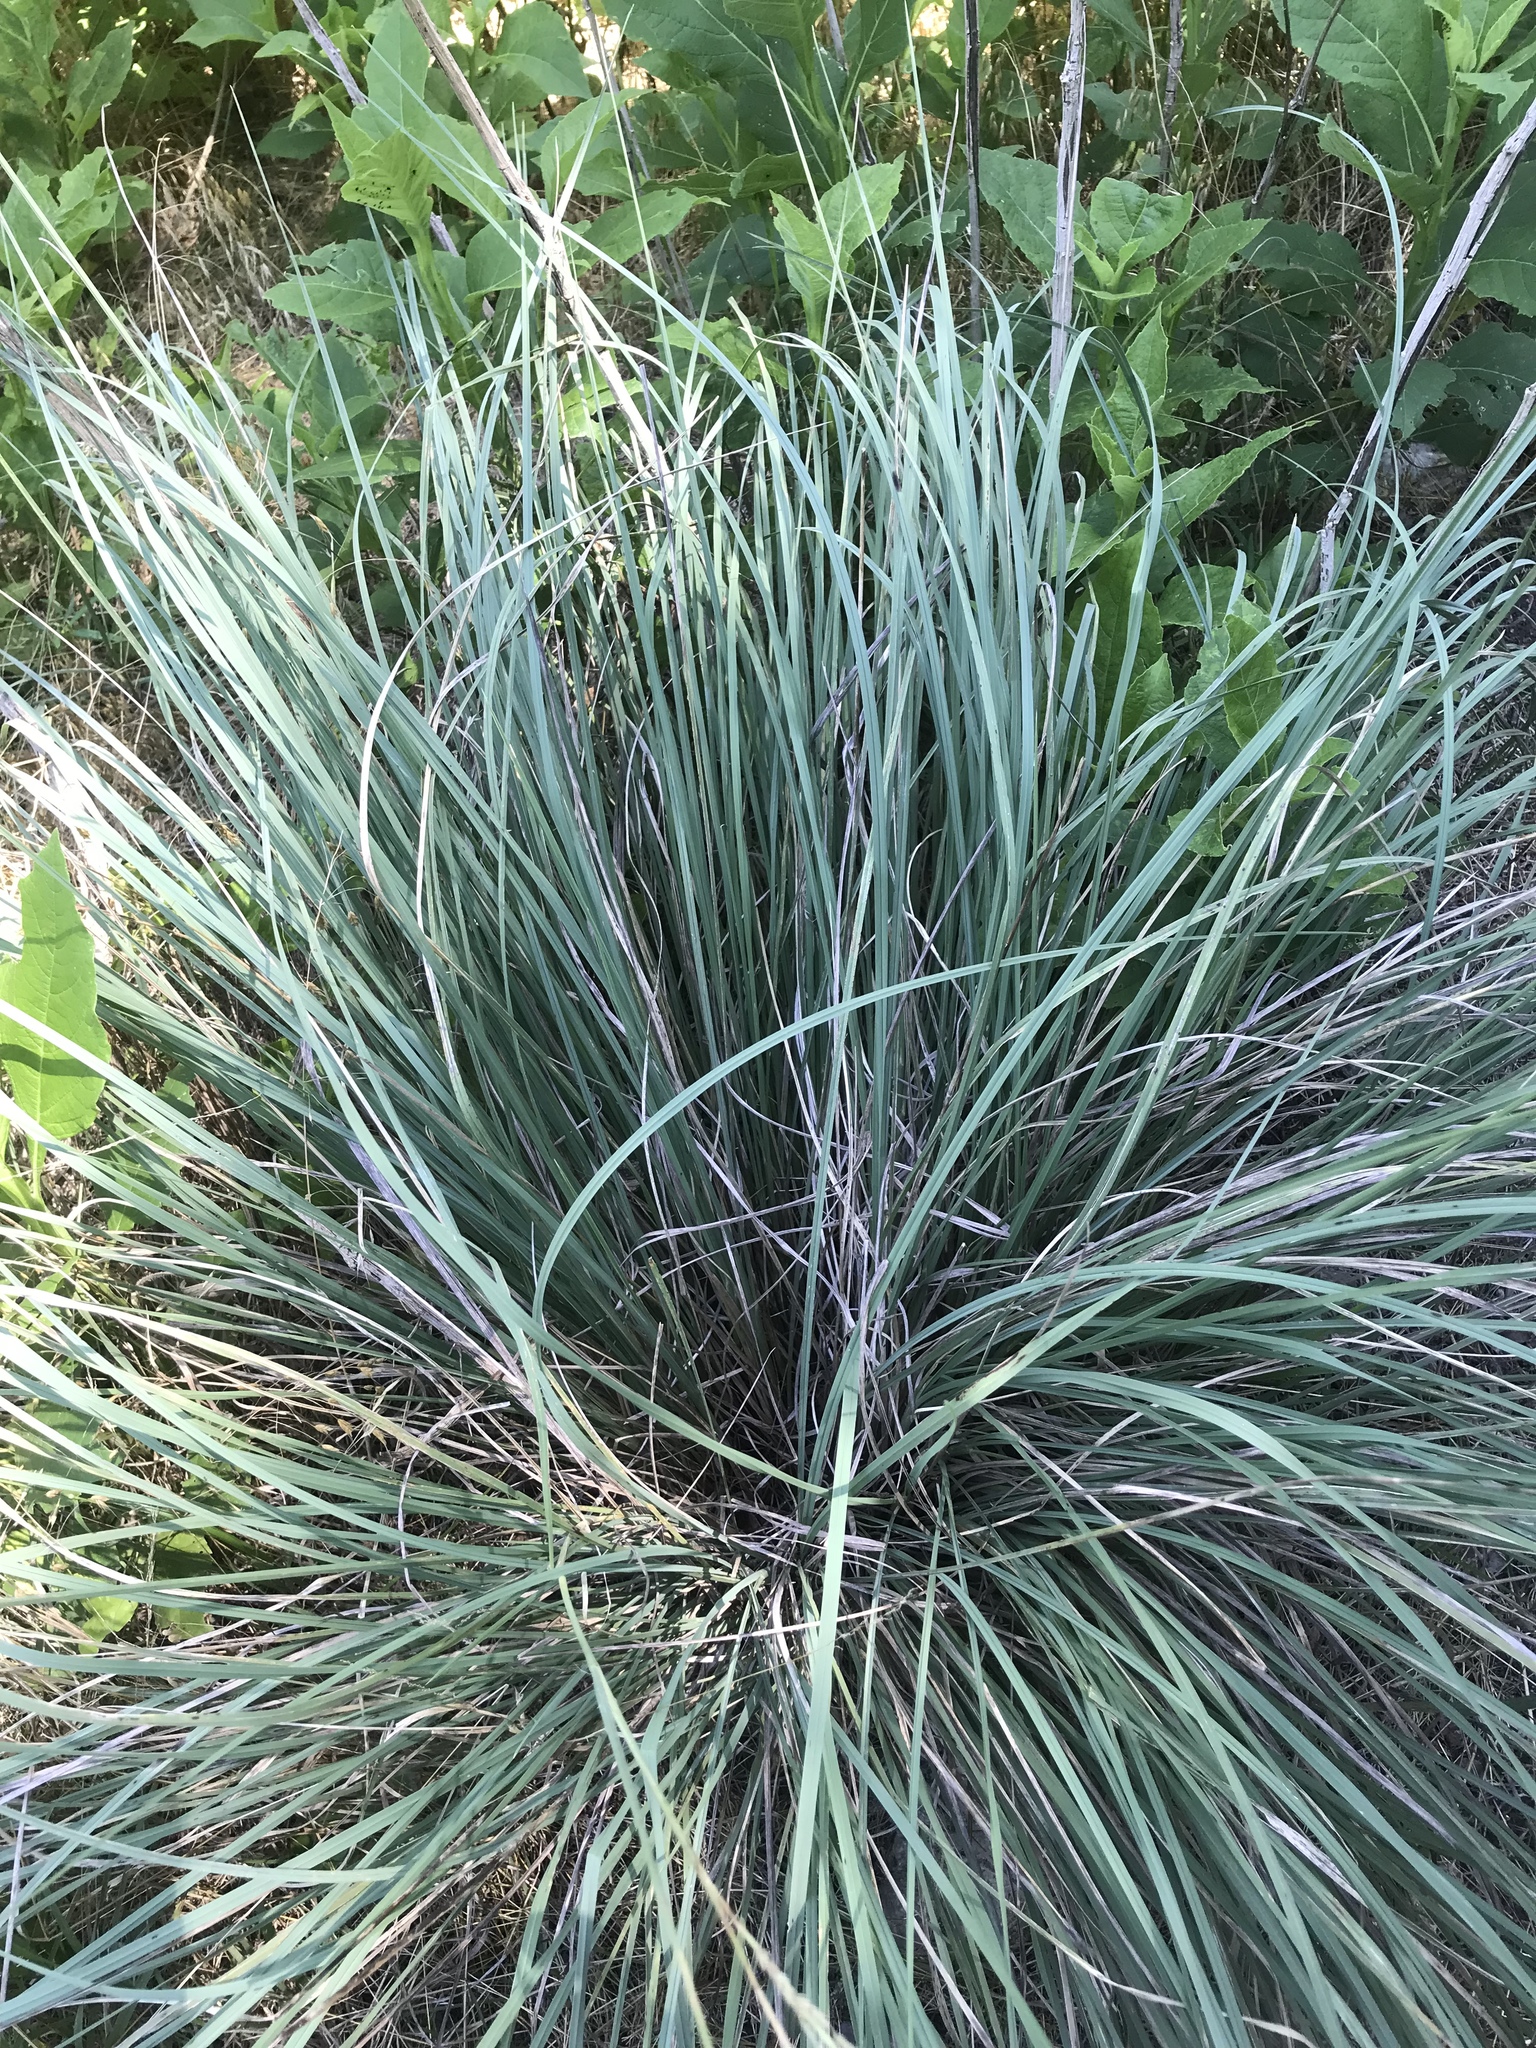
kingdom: Plantae
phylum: Tracheophyta
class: Liliopsida
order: Poales
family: Poaceae
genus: Muhlenbergia
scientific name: Muhlenbergia lindheimeri
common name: Lindheimer's muhly
